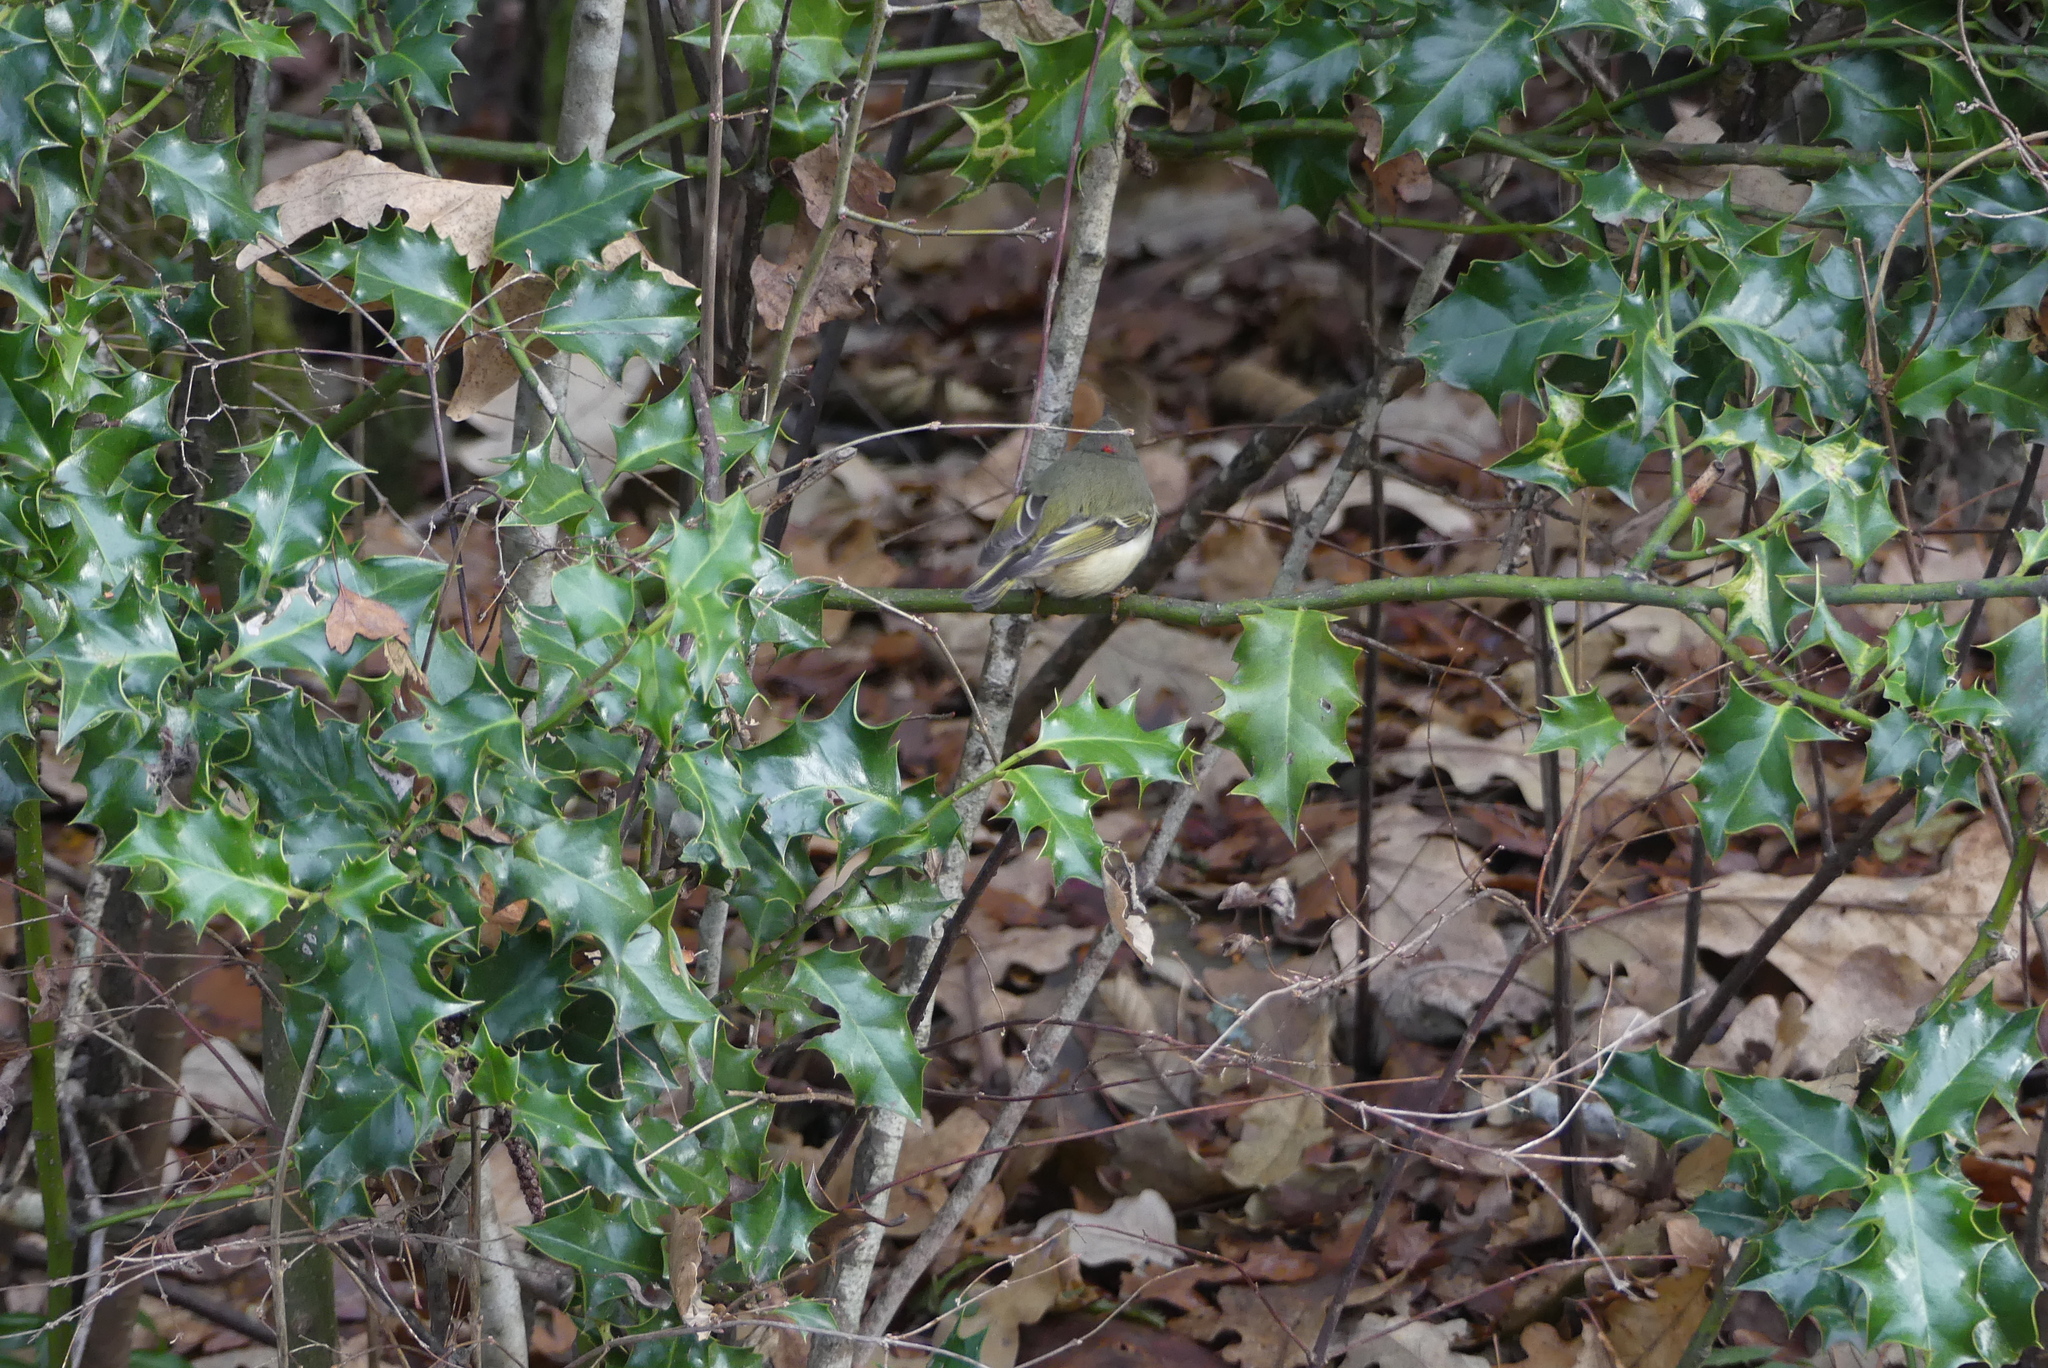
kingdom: Animalia
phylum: Chordata
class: Aves
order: Passeriformes
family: Regulidae
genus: Regulus
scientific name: Regulus calendula
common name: Ruby-crowned kinglet
